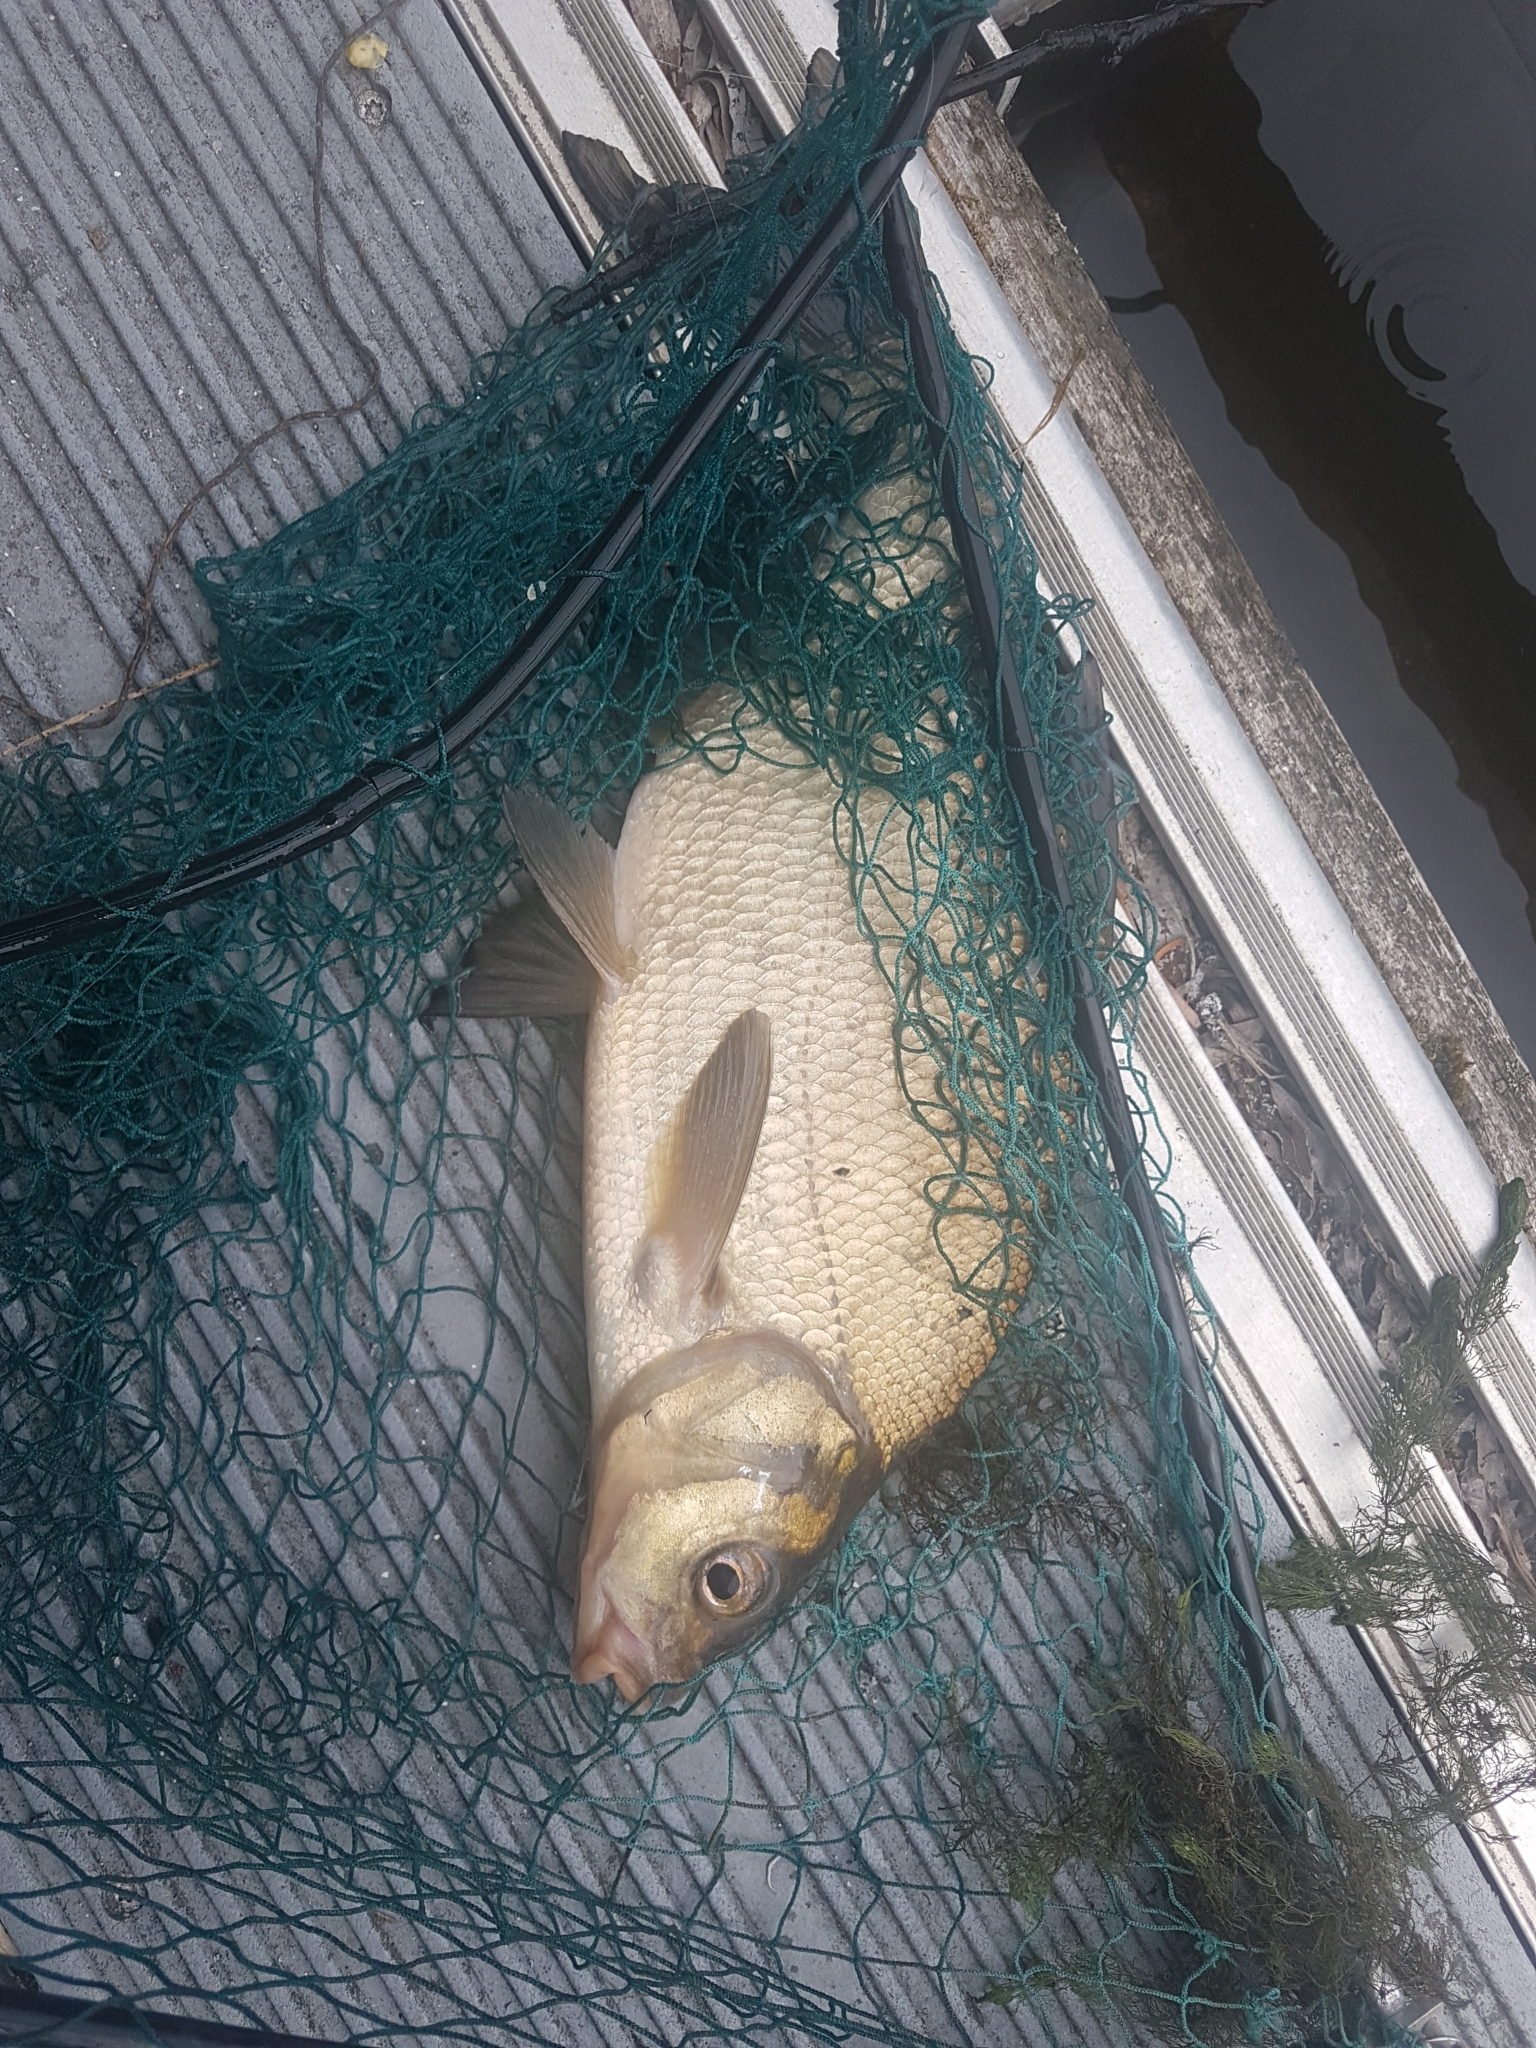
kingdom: Animalia
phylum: Chordata
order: Cypriniformes
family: Cyprinidae
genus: Abramis
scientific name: Abramis brama
